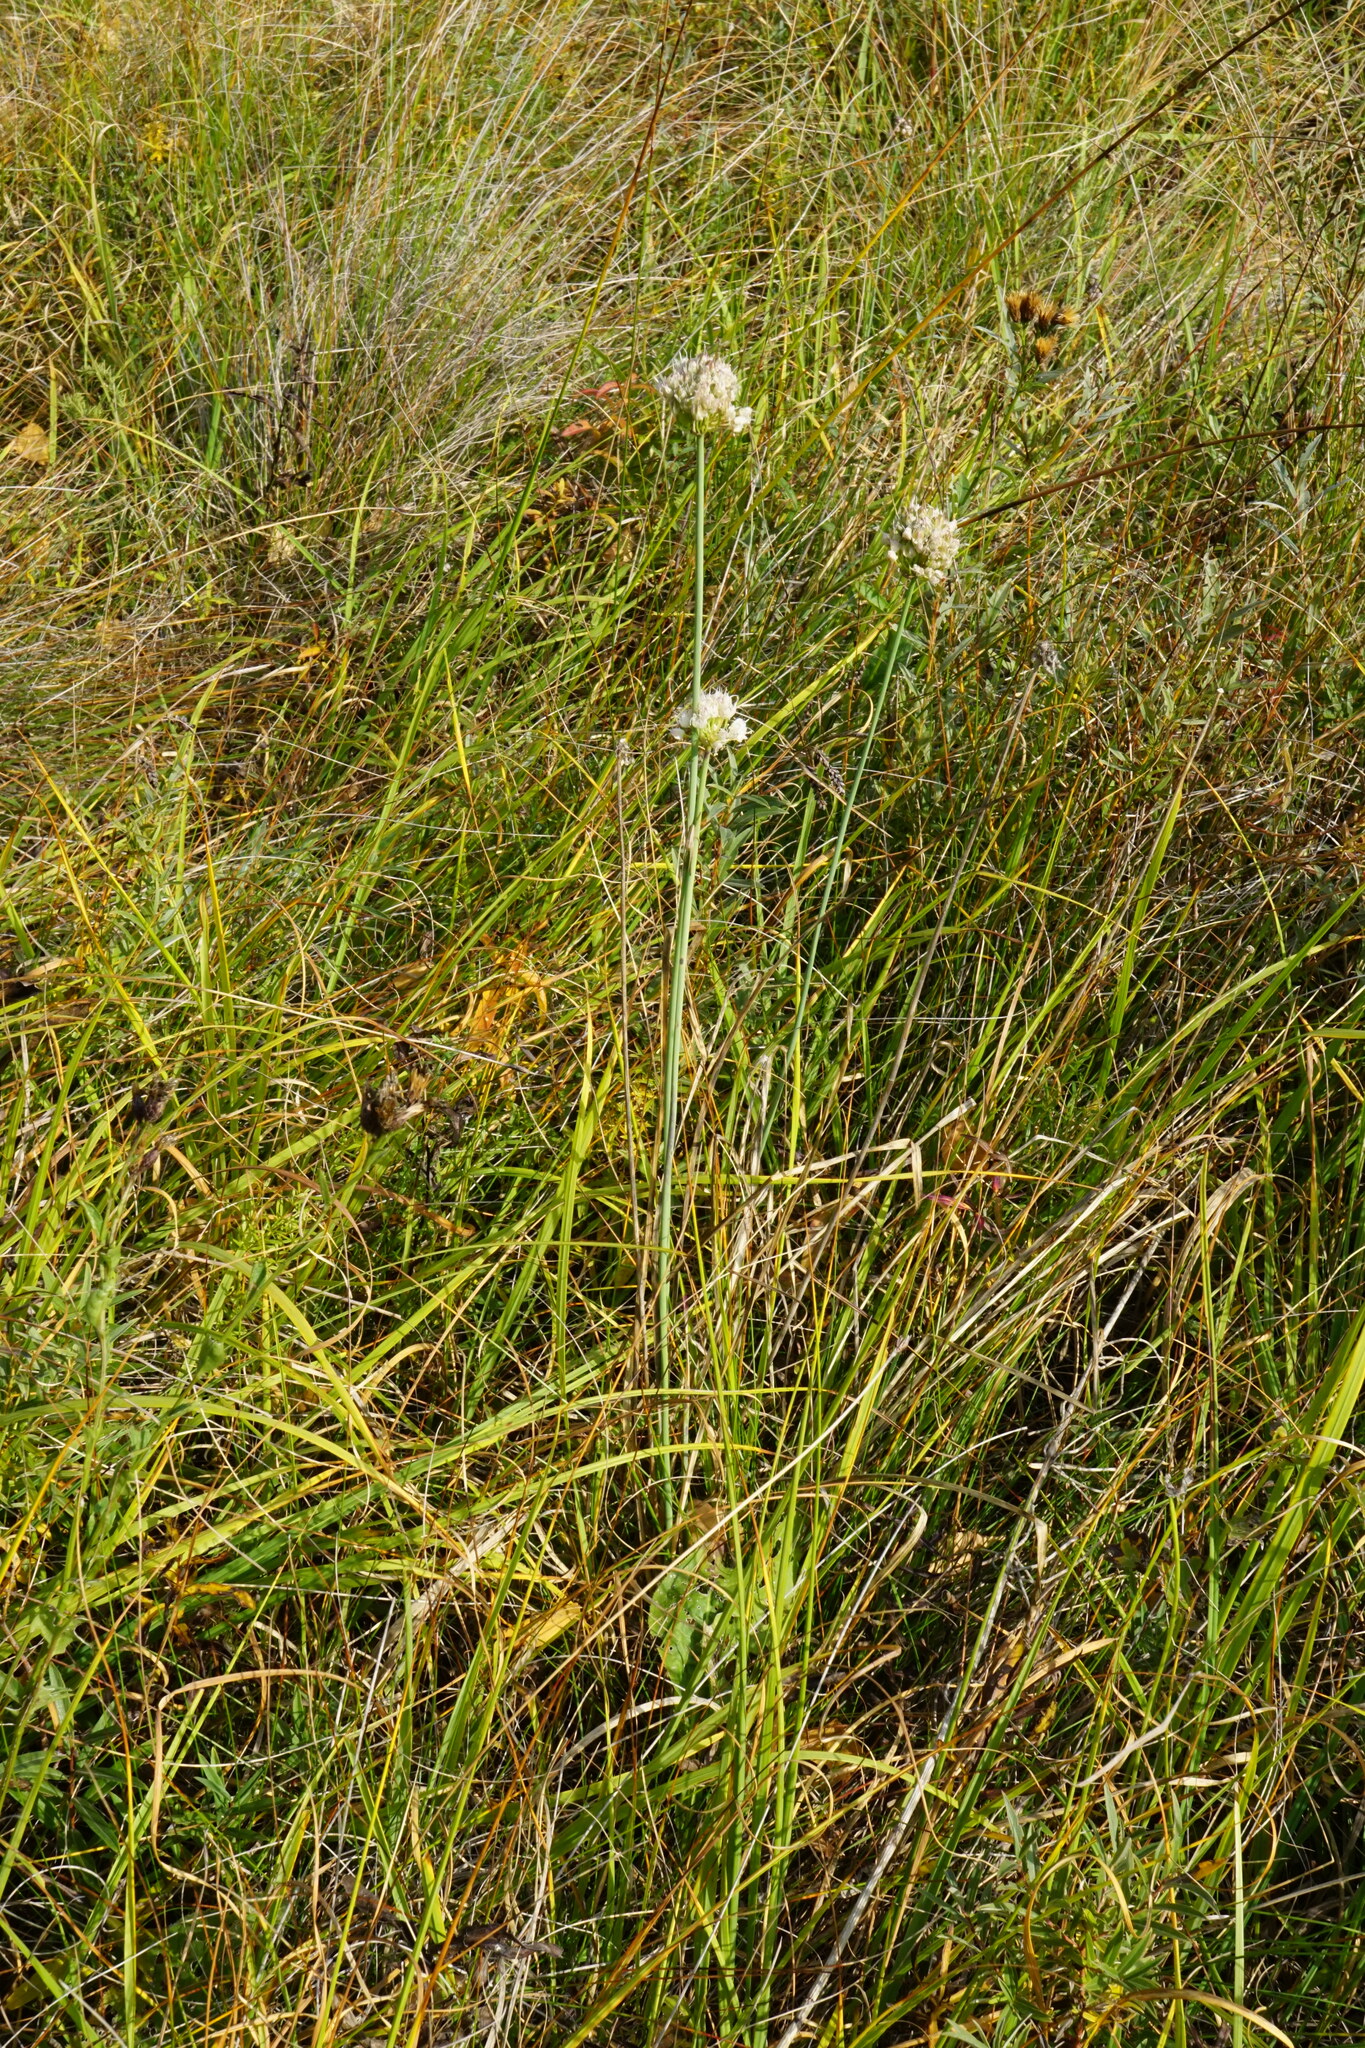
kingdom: Plantae
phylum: Tracheophyta
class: Liliopsida
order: Asparagales
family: Amaryllidaceae
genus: Allium
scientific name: Allium suaveolens
